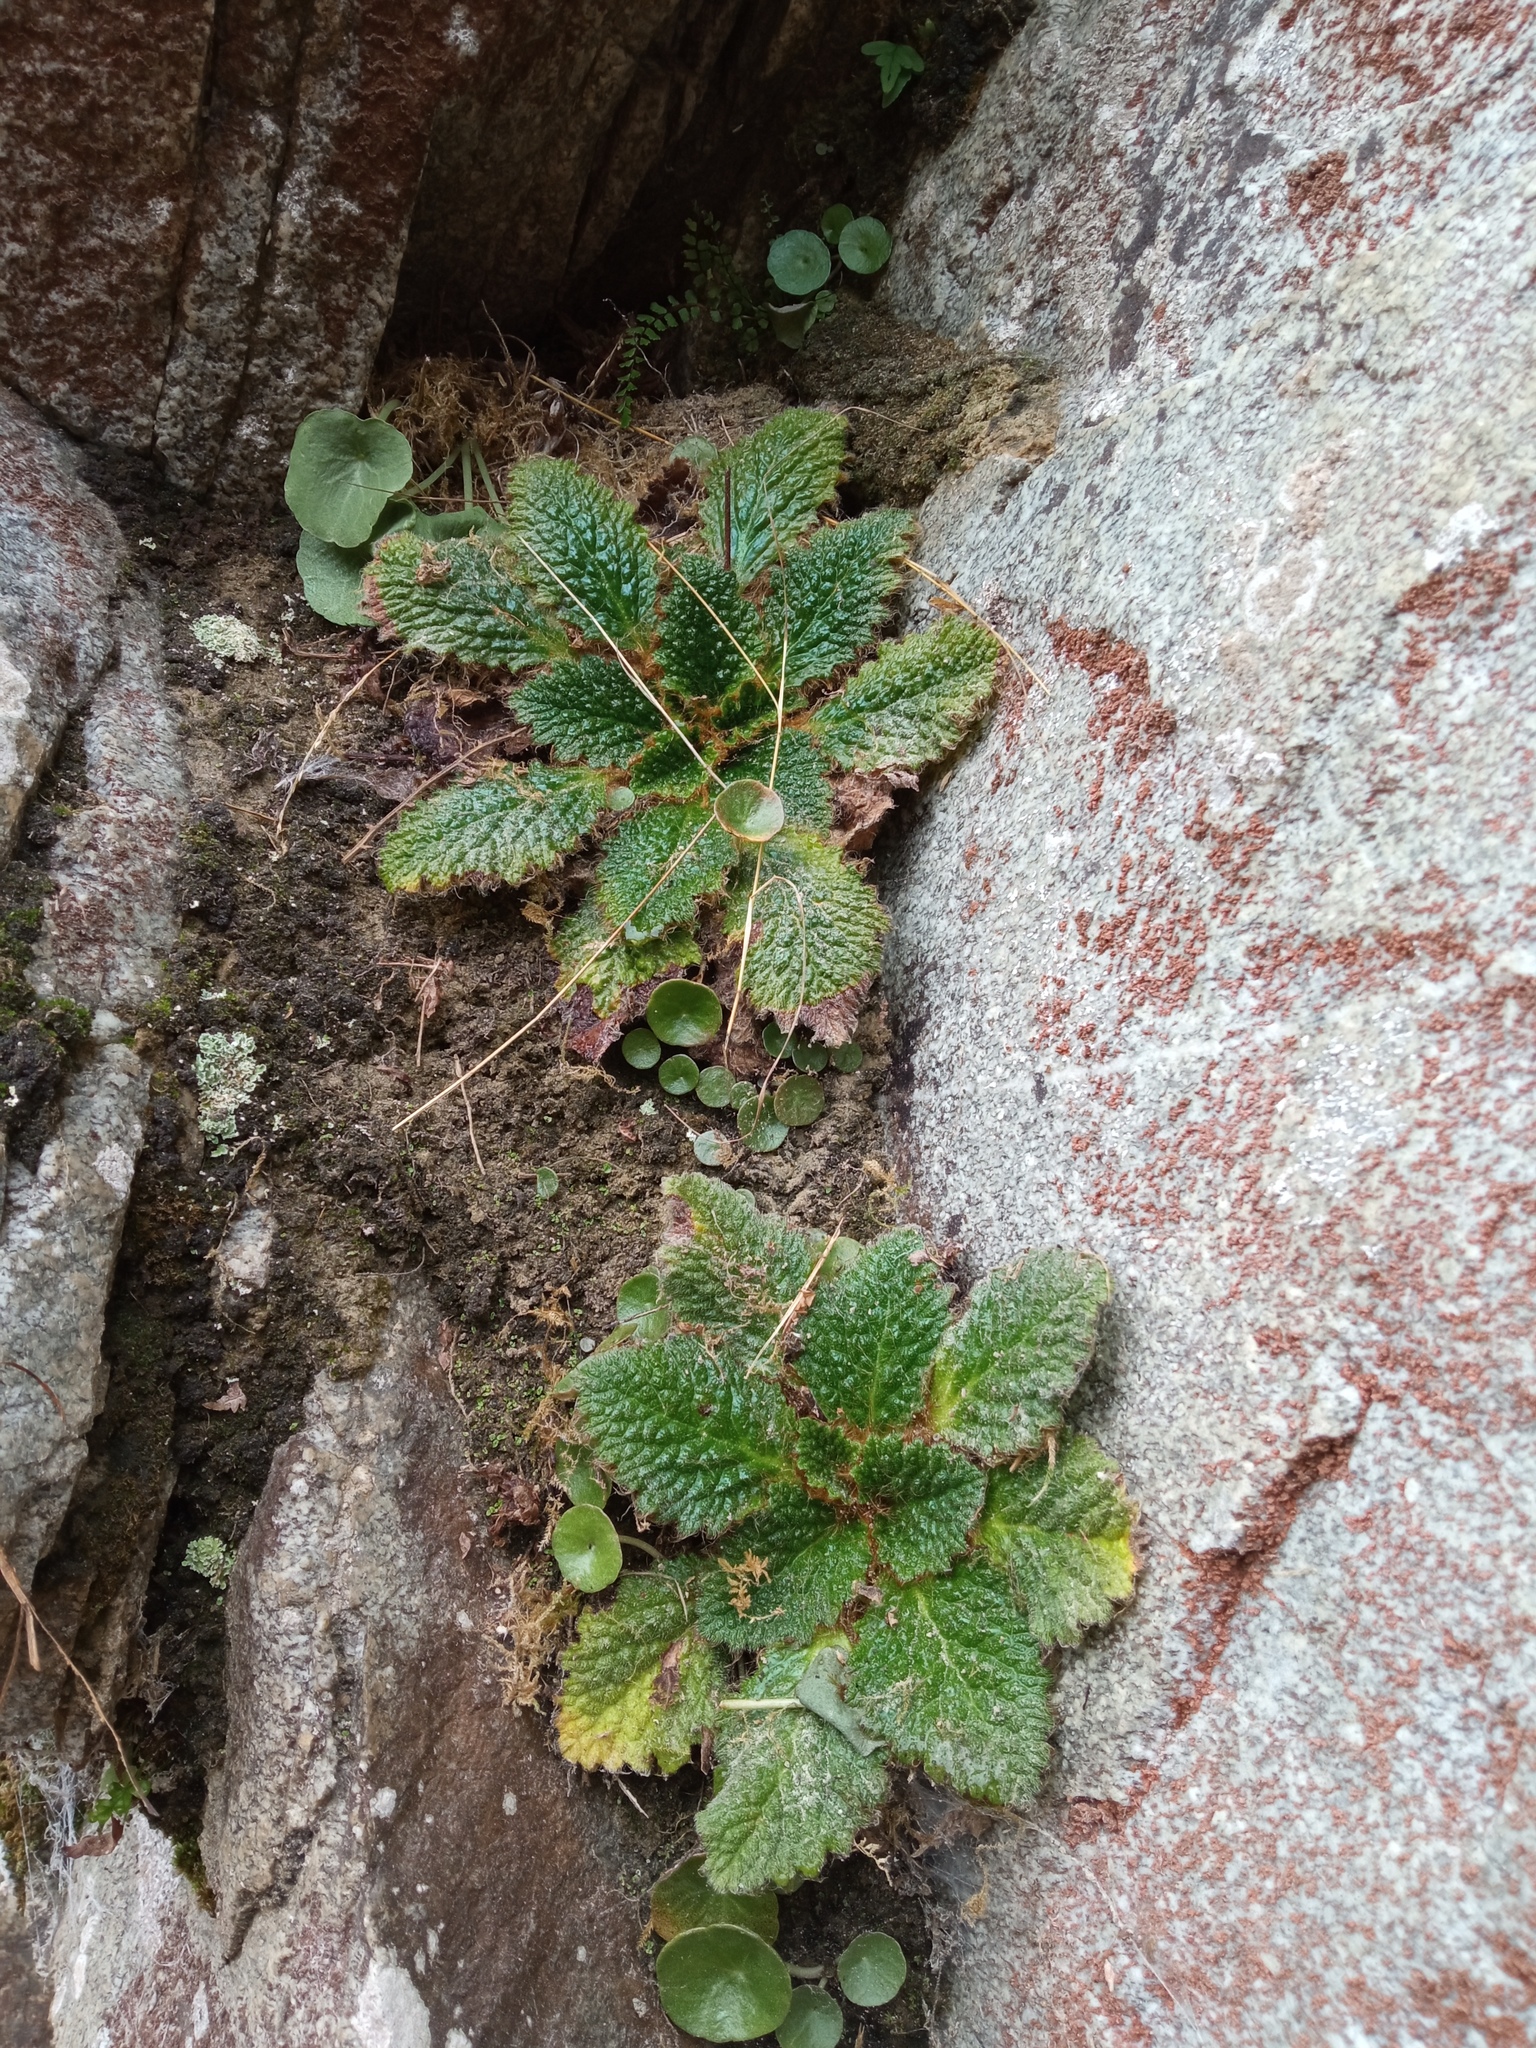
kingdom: Plantae
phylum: Tracheophyta
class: Magnoliopsida
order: Lamiales
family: Gesneriaceae
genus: Ramonda
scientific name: Ramonda myconi
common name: Pyrenean-violet
